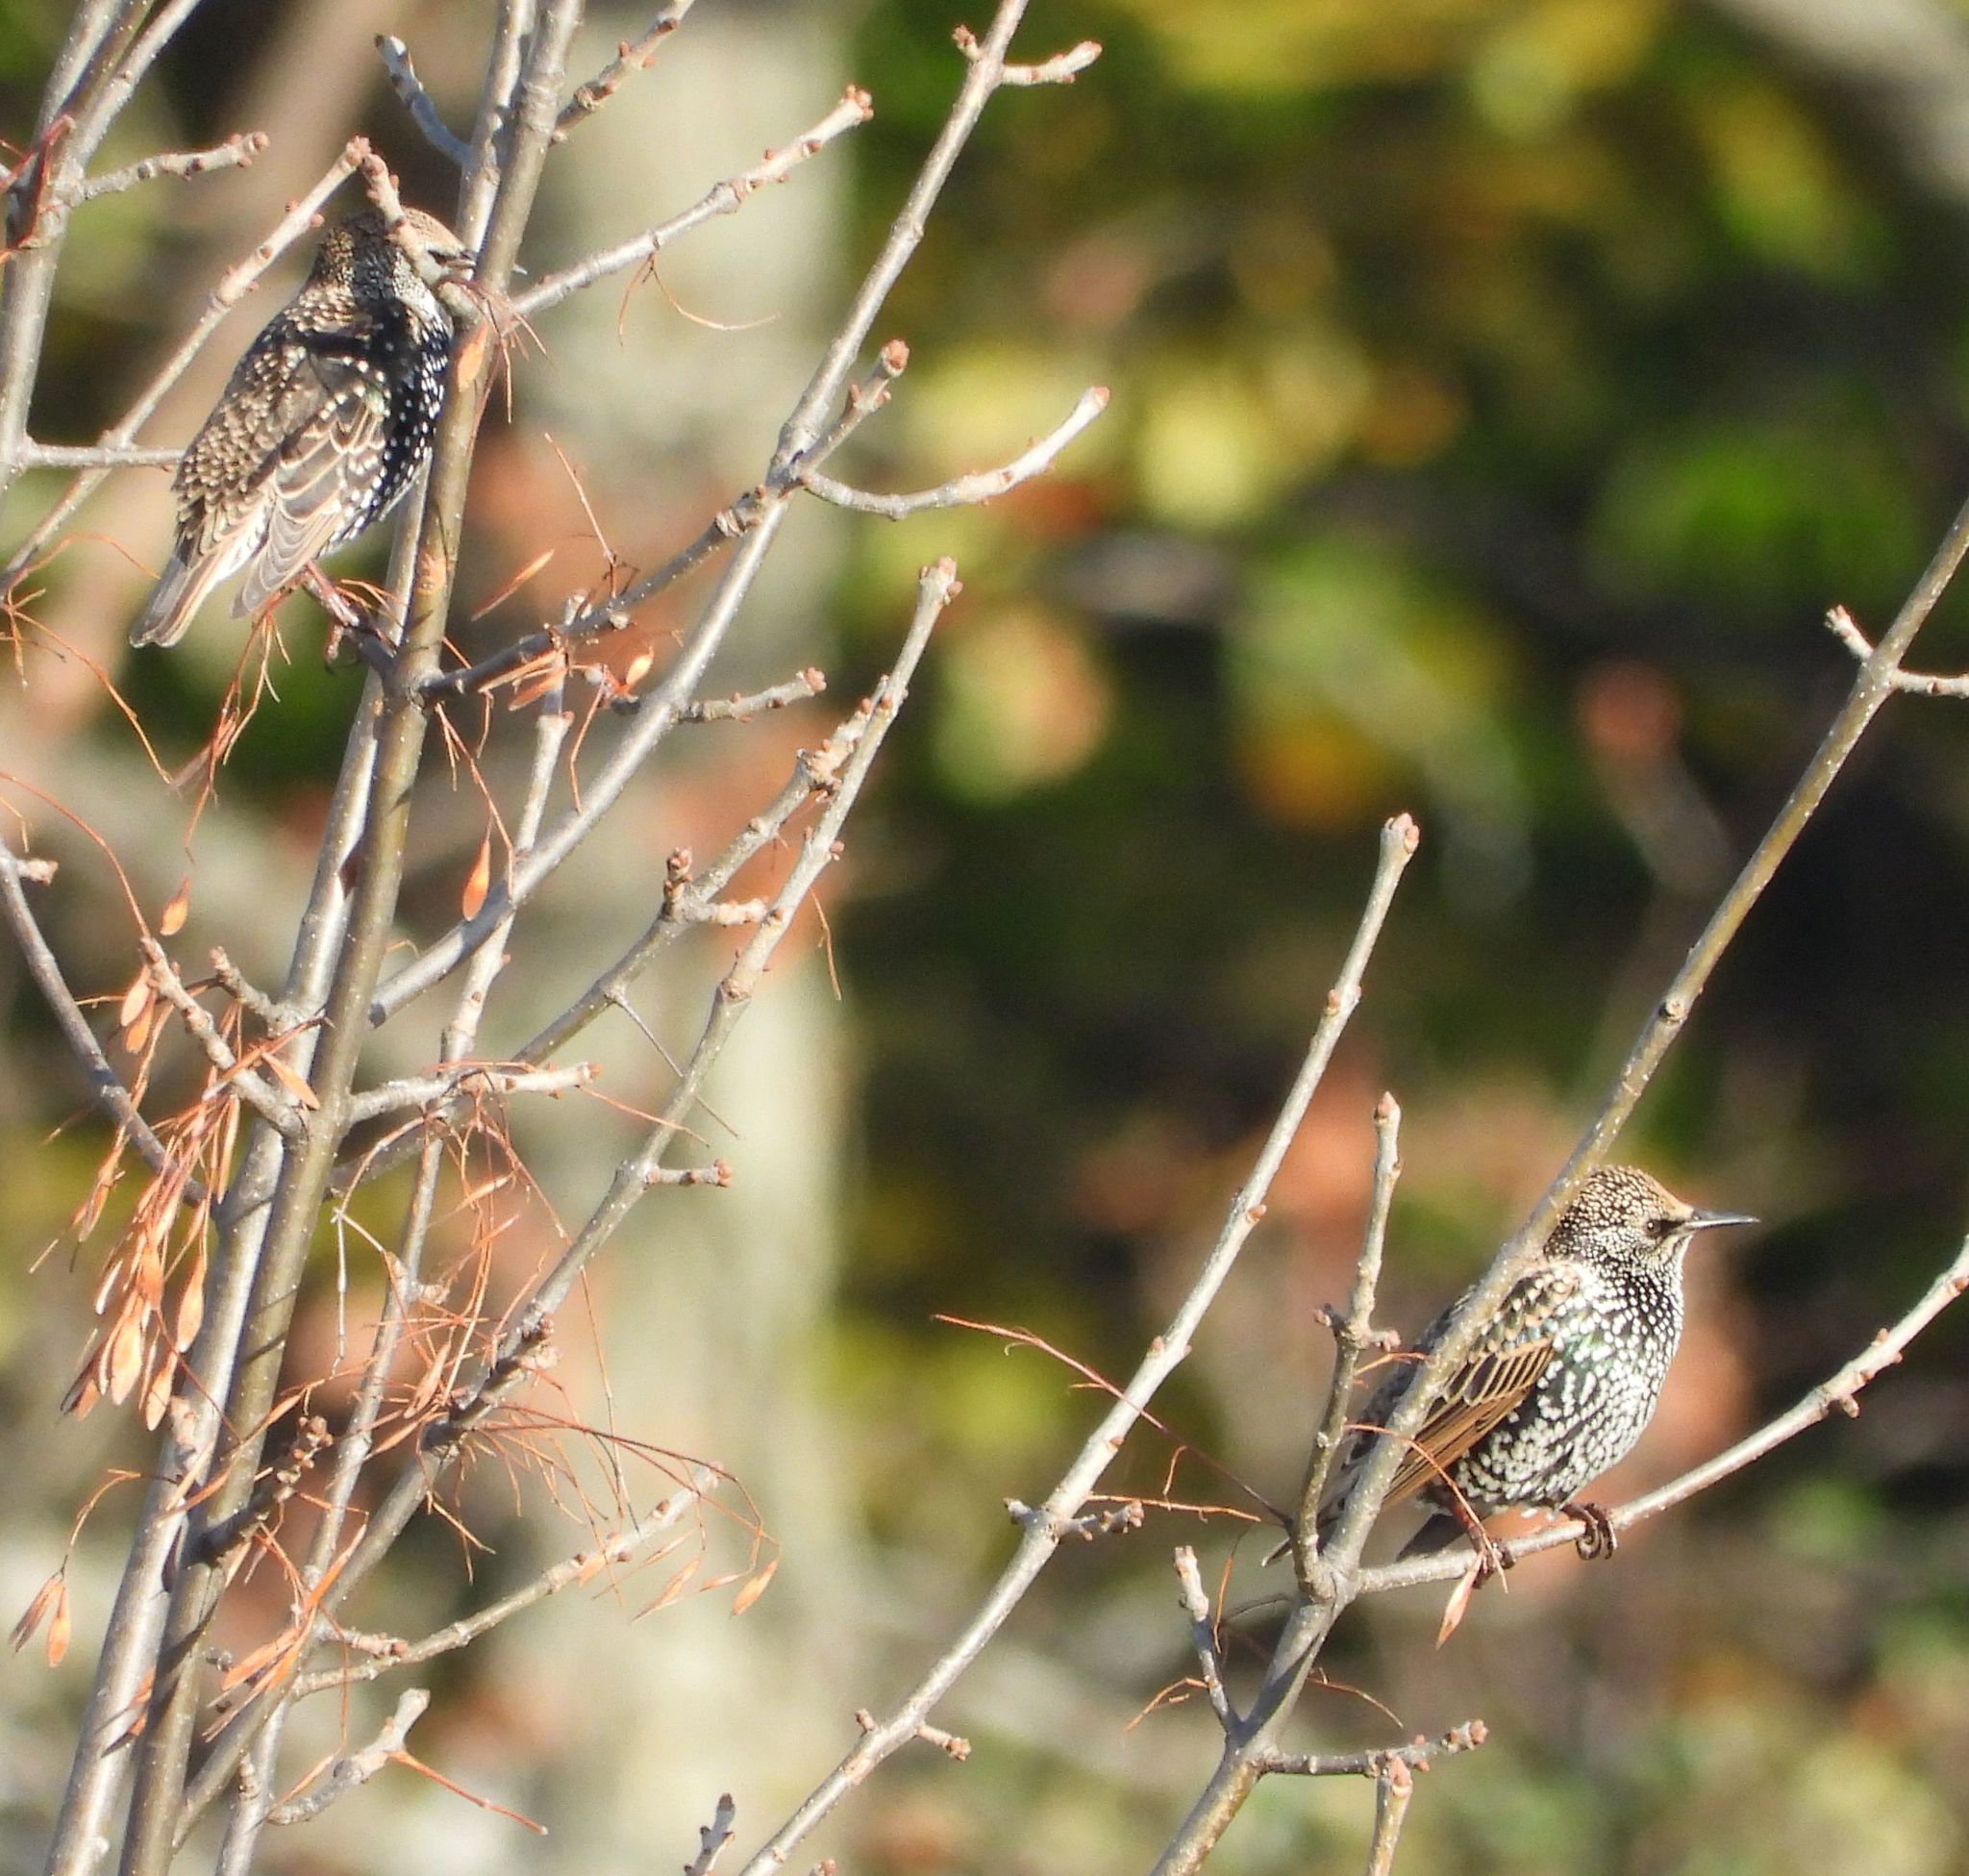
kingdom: Animalia
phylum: Chordata
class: Aves
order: Passeriformes
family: Sturnidae
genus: Sturnus
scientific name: Sturnus vulgaris
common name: Common starling
